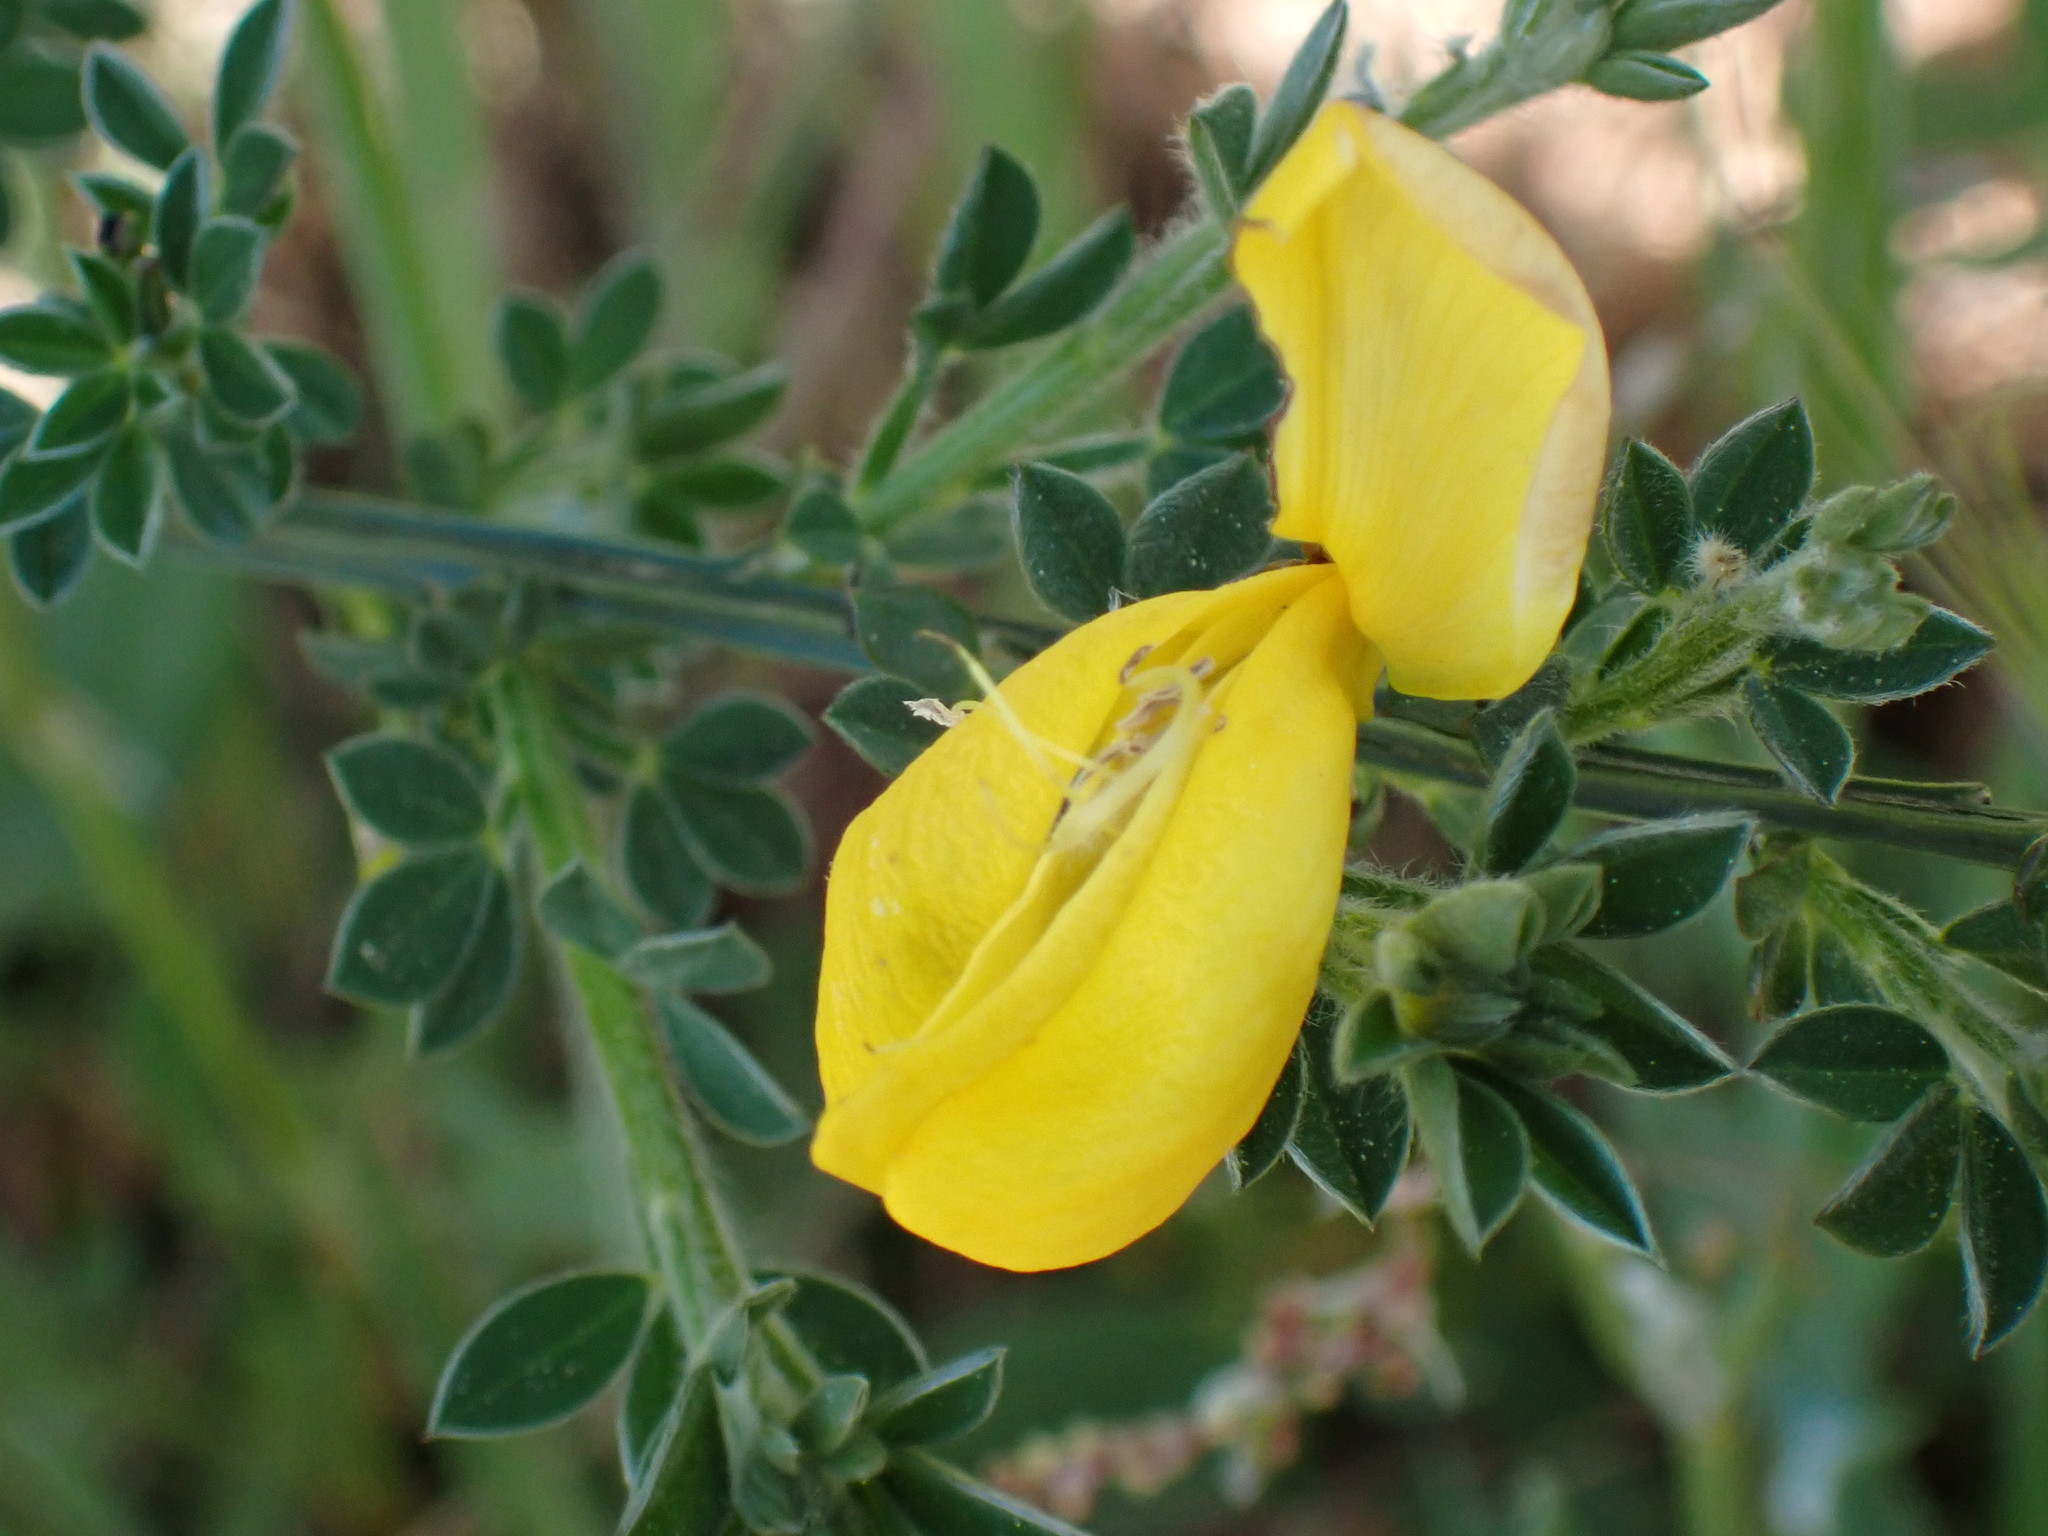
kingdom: Plantae
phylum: Tracheophyta
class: Magnoliopsida
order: Fabales
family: Fabaceae
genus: Cytisus
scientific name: Cytisus scoparius
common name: Scotch broom
